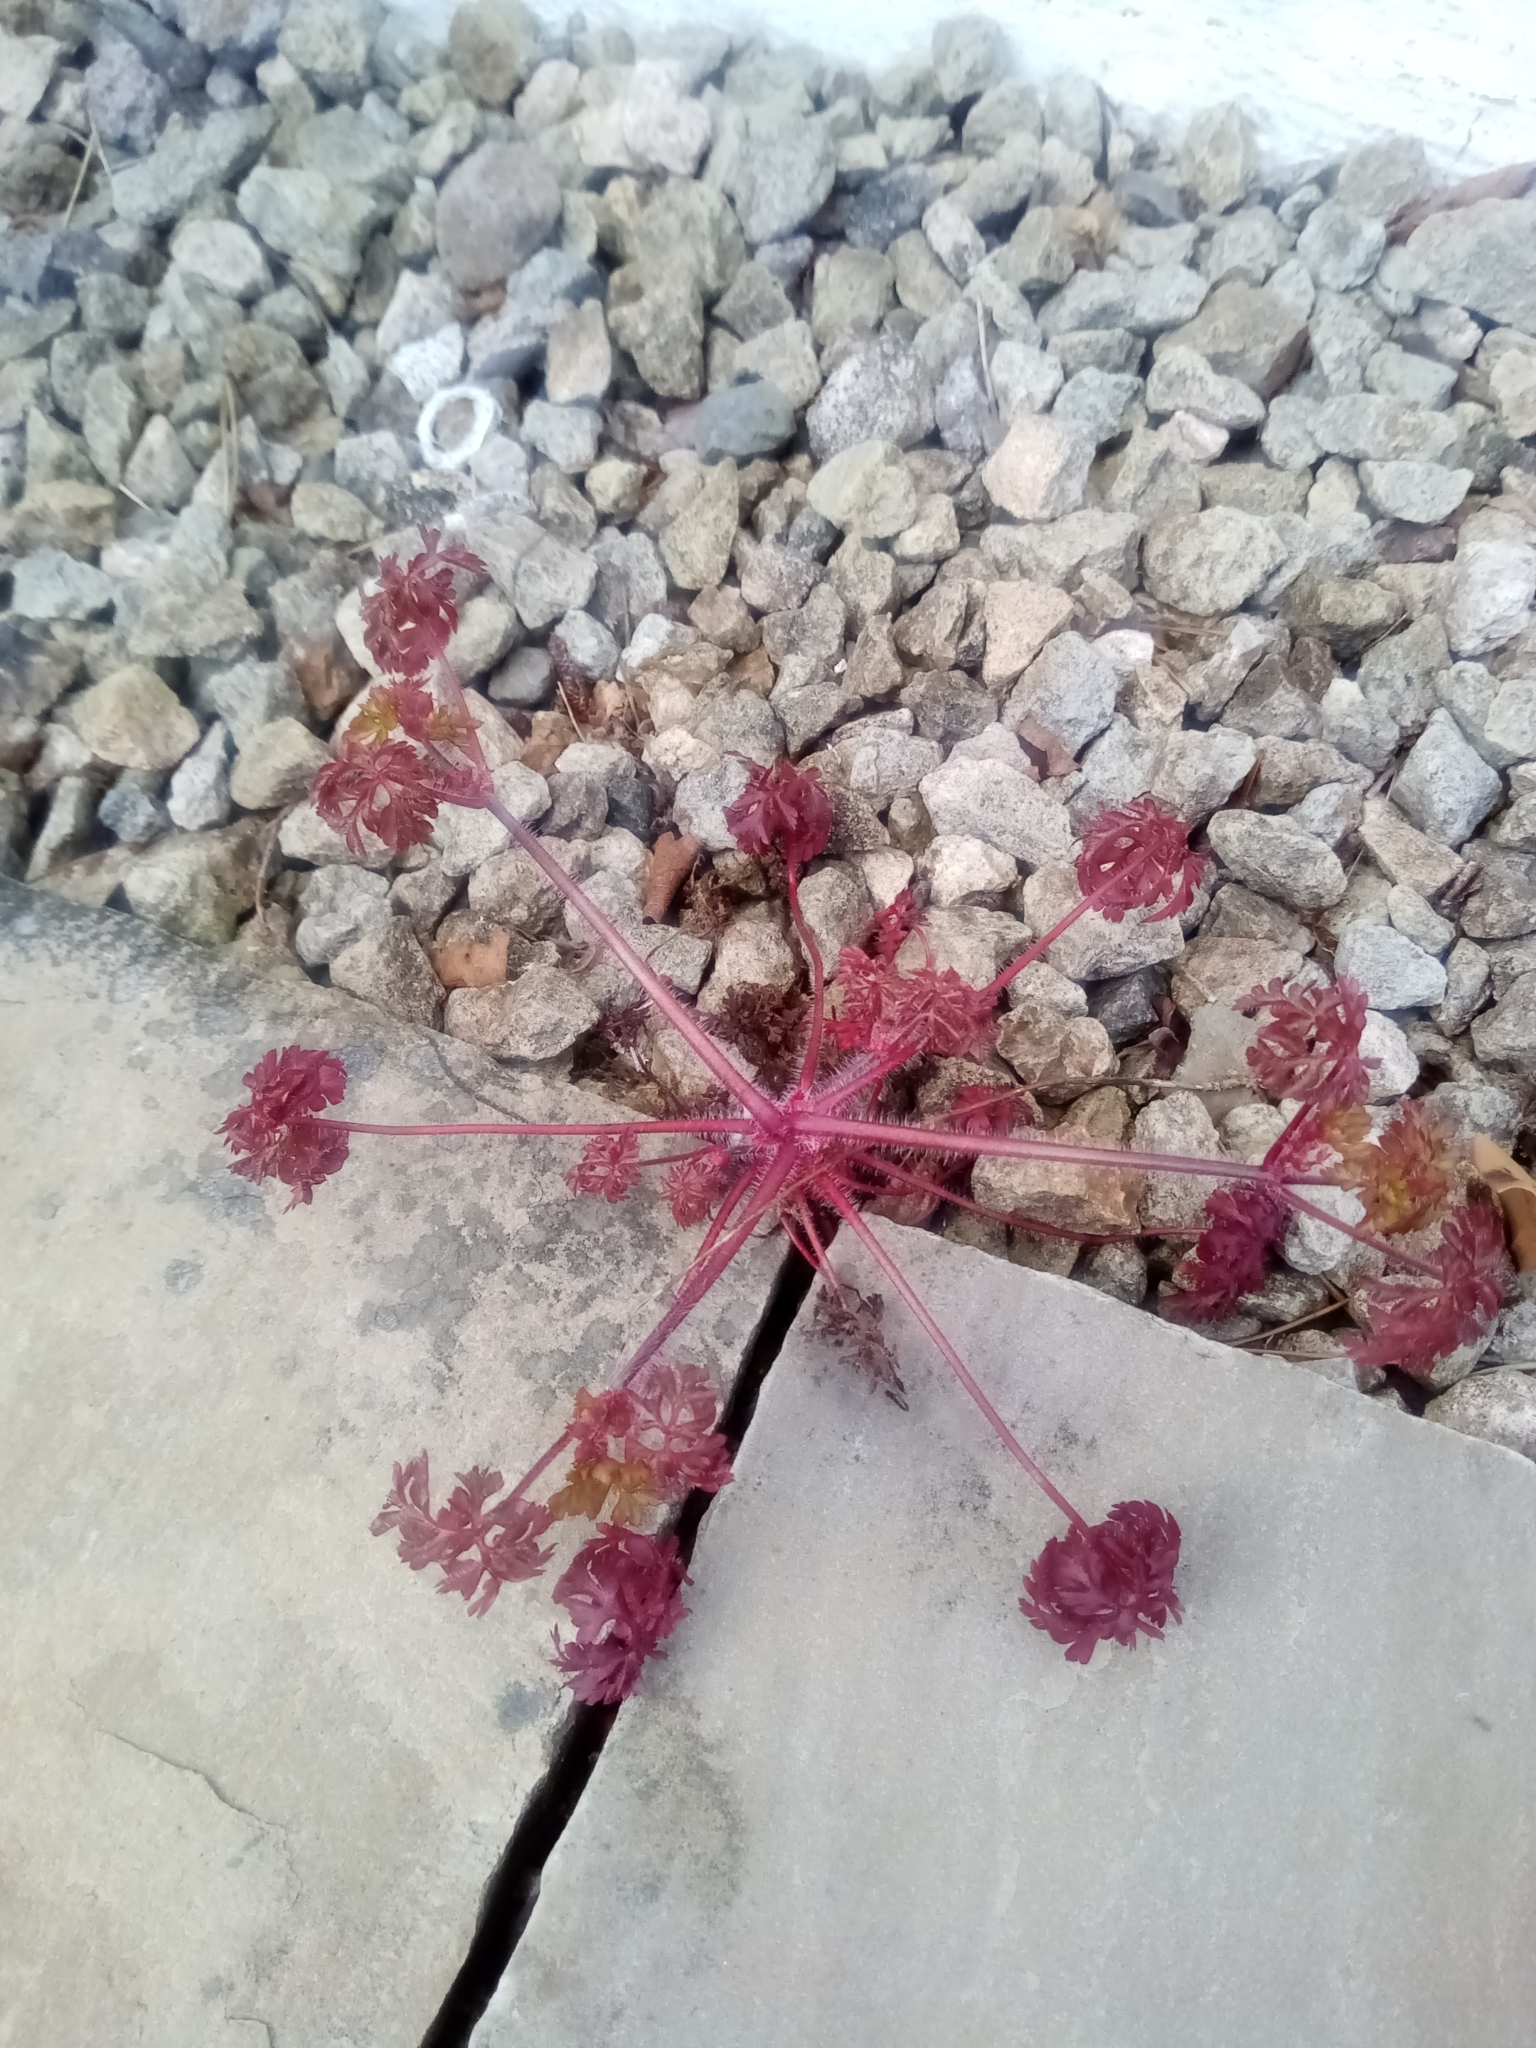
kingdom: Plantae
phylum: Tracheophyta
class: Magnoliopsida
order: Geraniales
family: Geraniaceae
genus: Geranium
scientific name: Geranium robertianum
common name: Herb-robert
